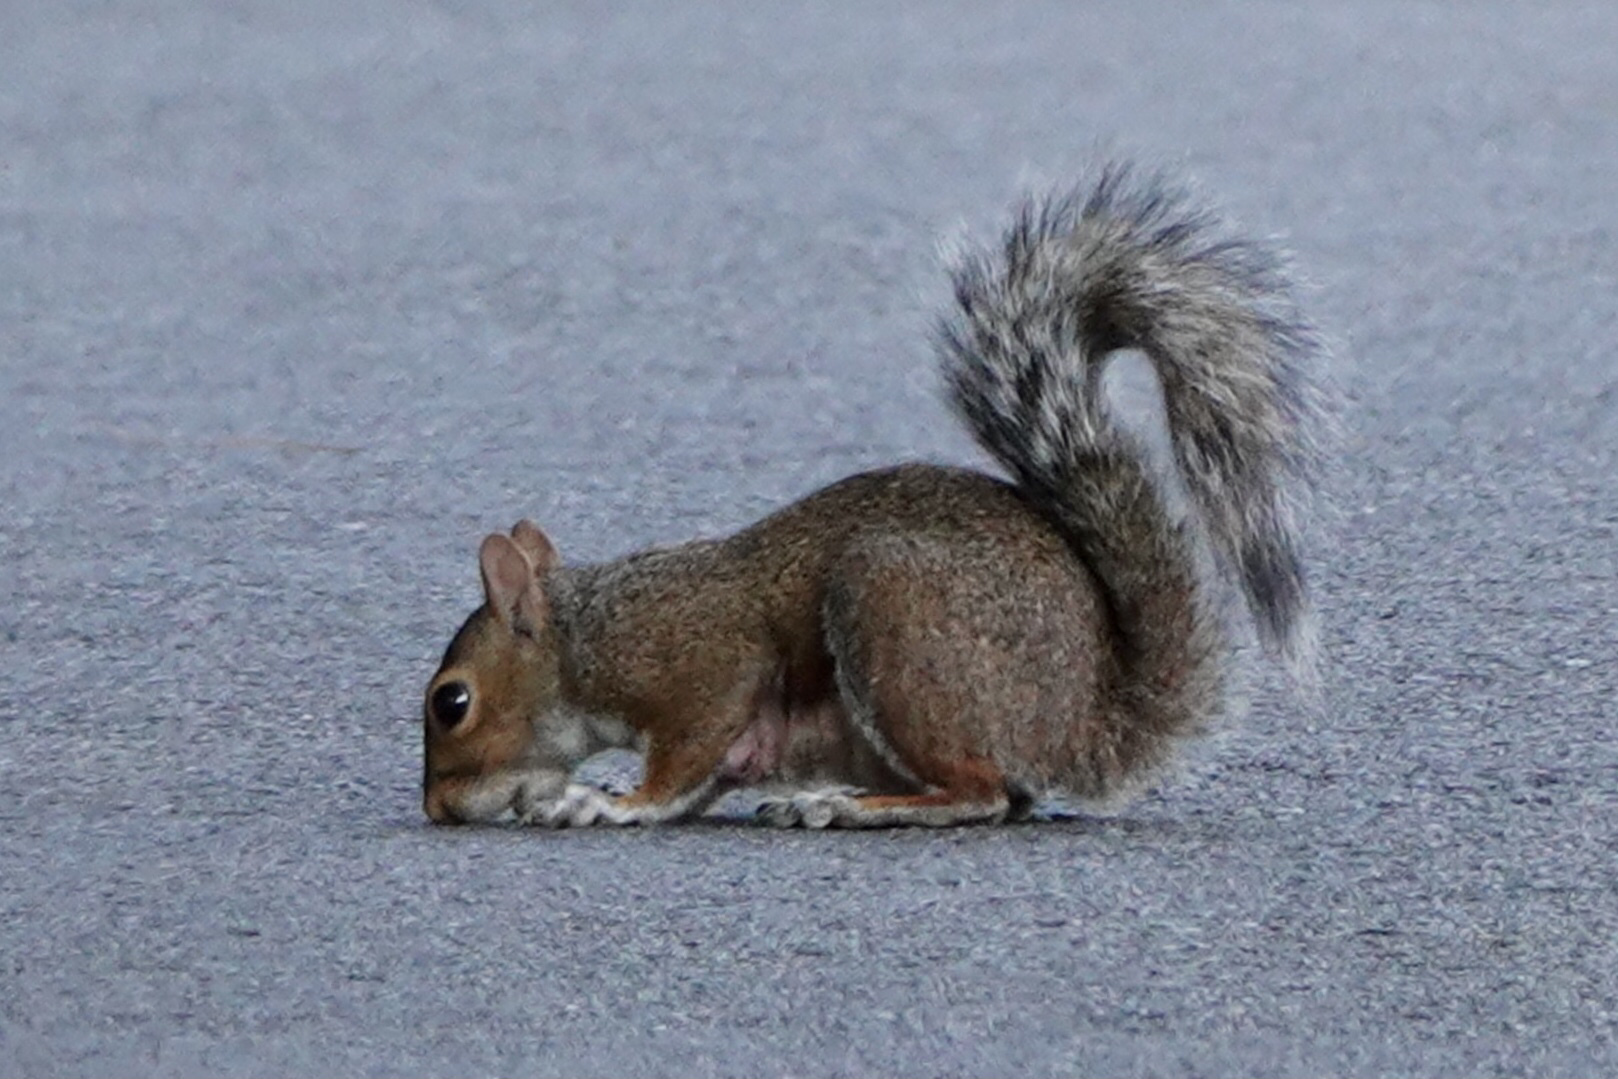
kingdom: Animalia
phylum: Chordata
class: Mammalia
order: Rodentia
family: Sciuridae
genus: Sciurus
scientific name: Sciurus carolinensis
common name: Eastern gray squirrel
